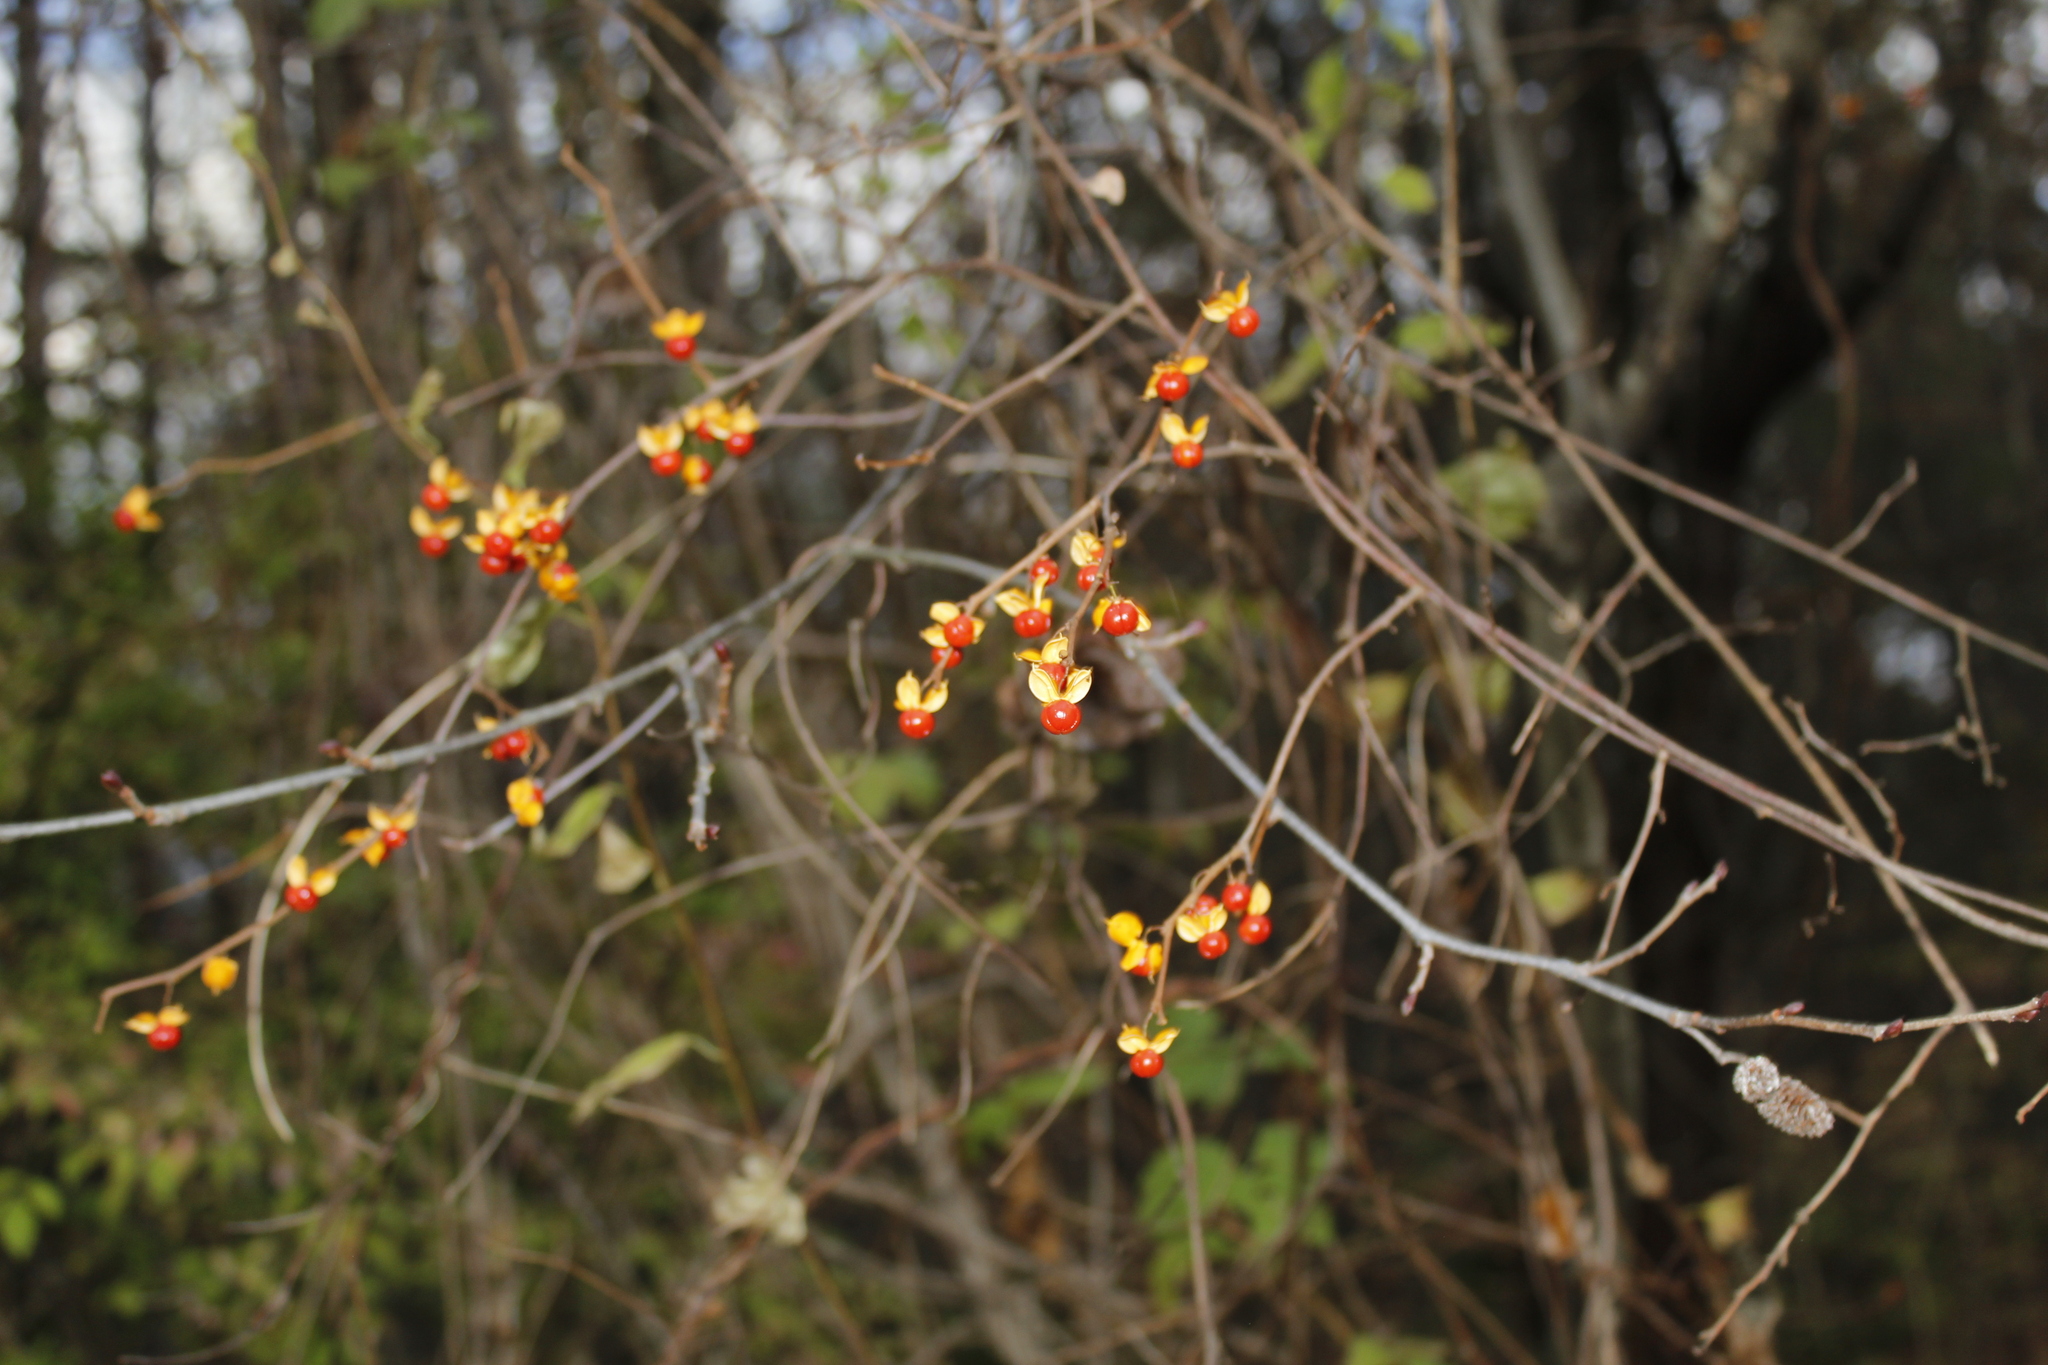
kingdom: Plantae
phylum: Tracheophyta
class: Magnoliopsida
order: Celastrales
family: Celastraceae
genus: Celastrus
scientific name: Celastrus orbiculatus
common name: Oriental bittersweet
